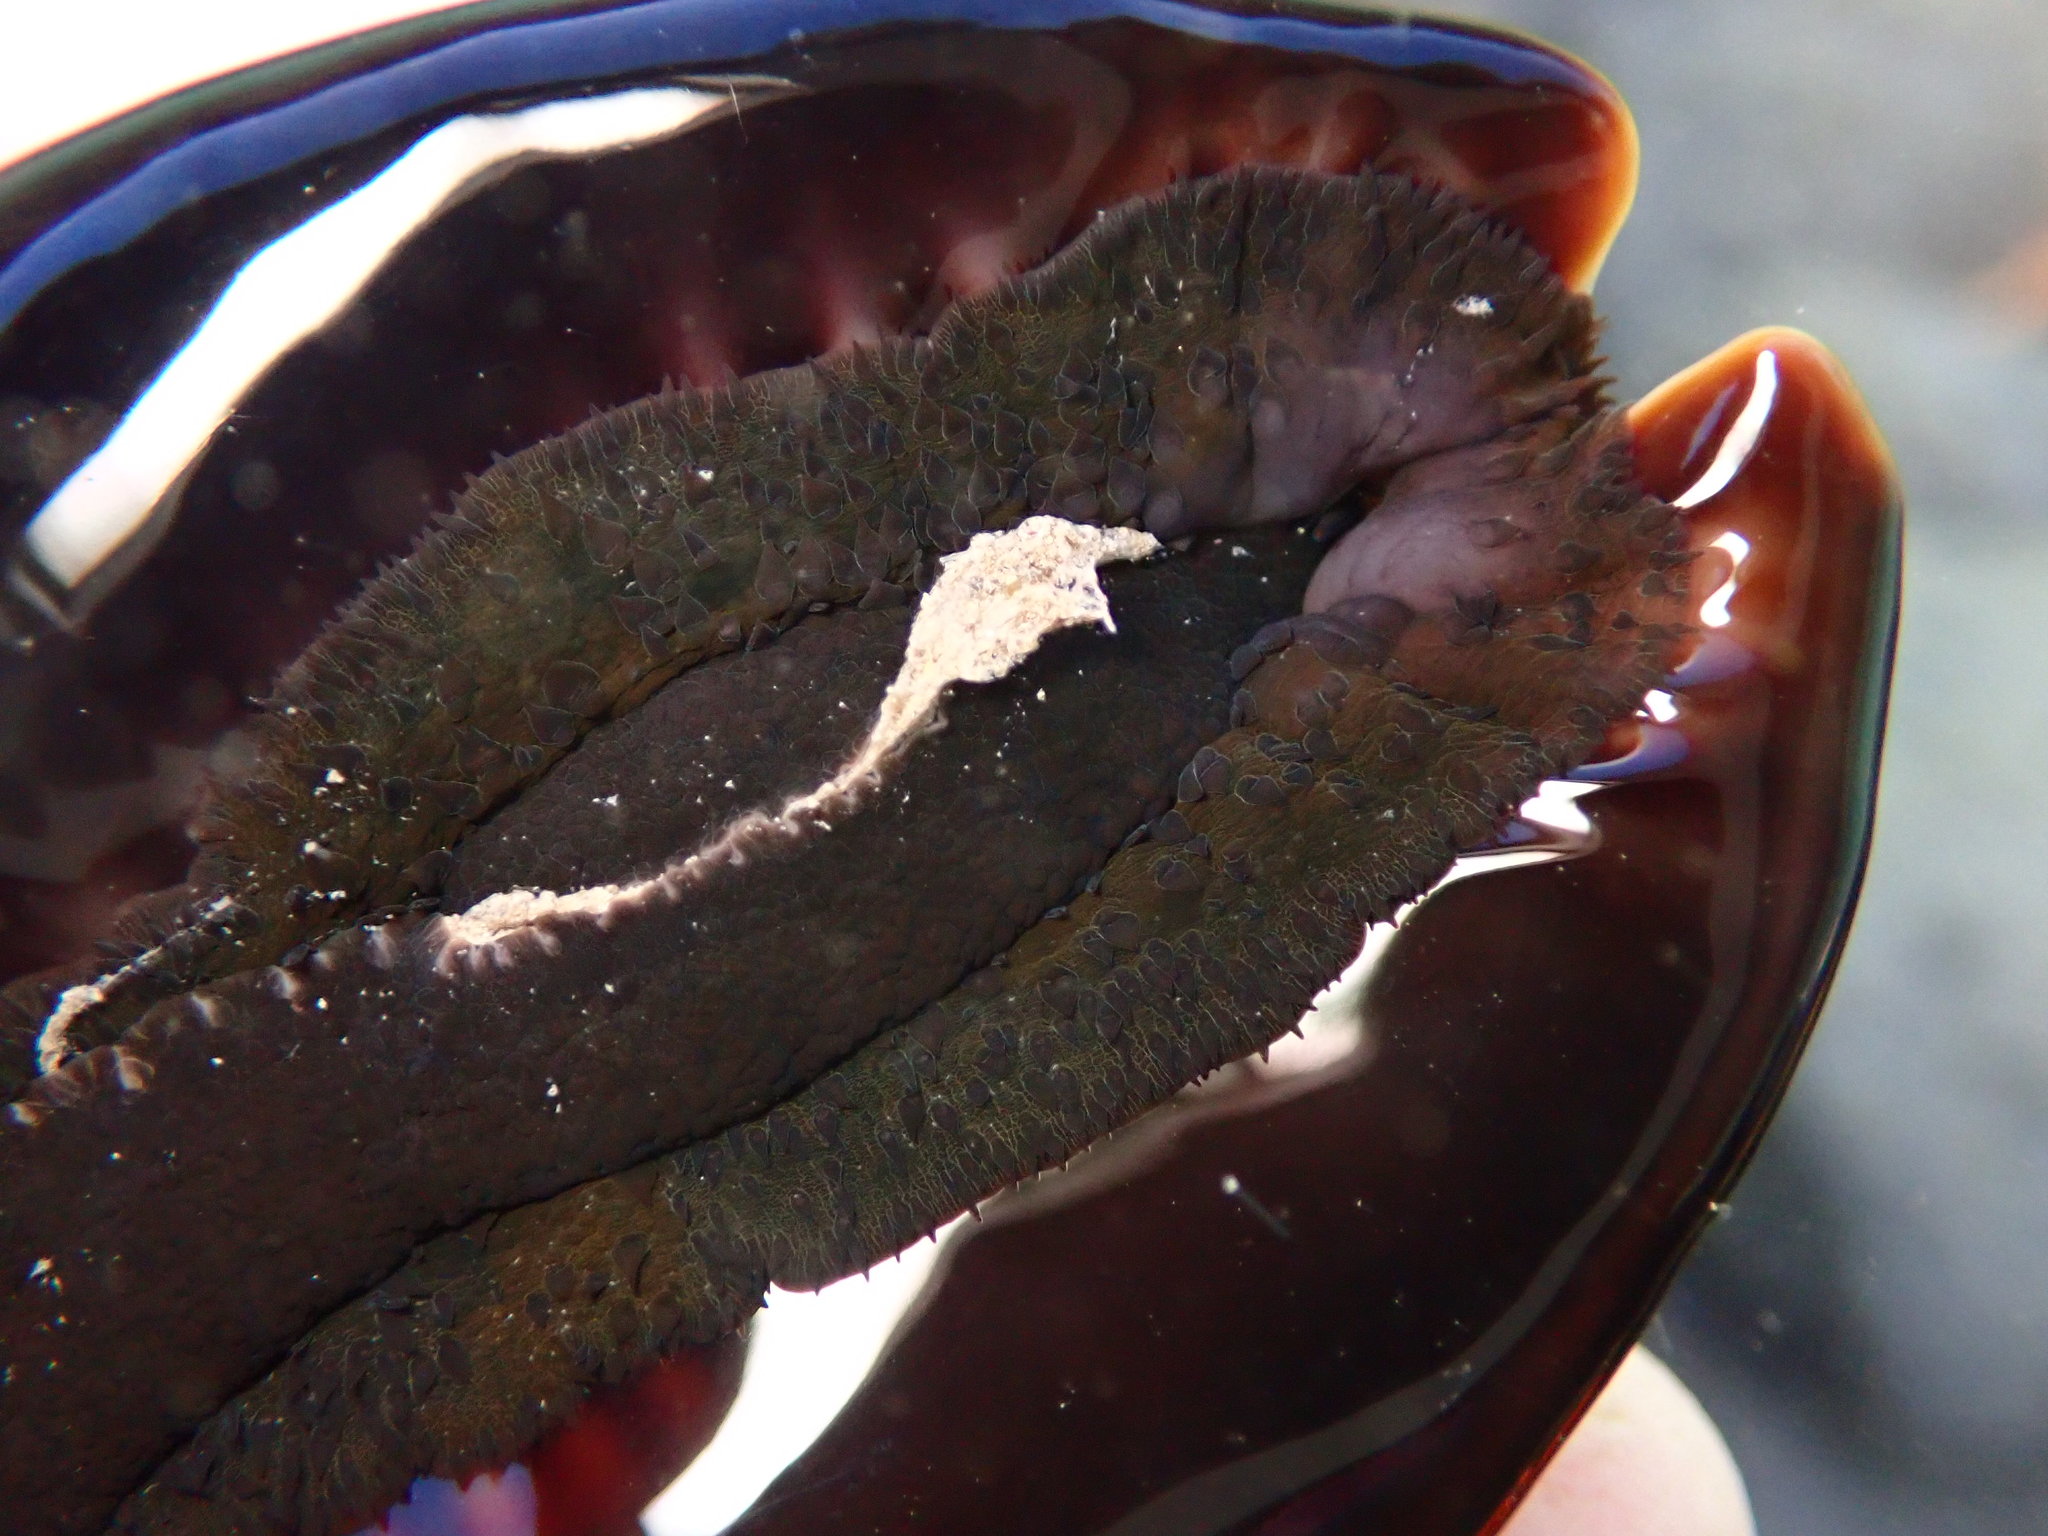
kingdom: Animalia
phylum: Mollusca
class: Gastropoda
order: Littorinimorpha
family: Cypraeidae
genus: Mauritia
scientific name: Mauritia mauritiana
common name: Hump-backed cowrie
